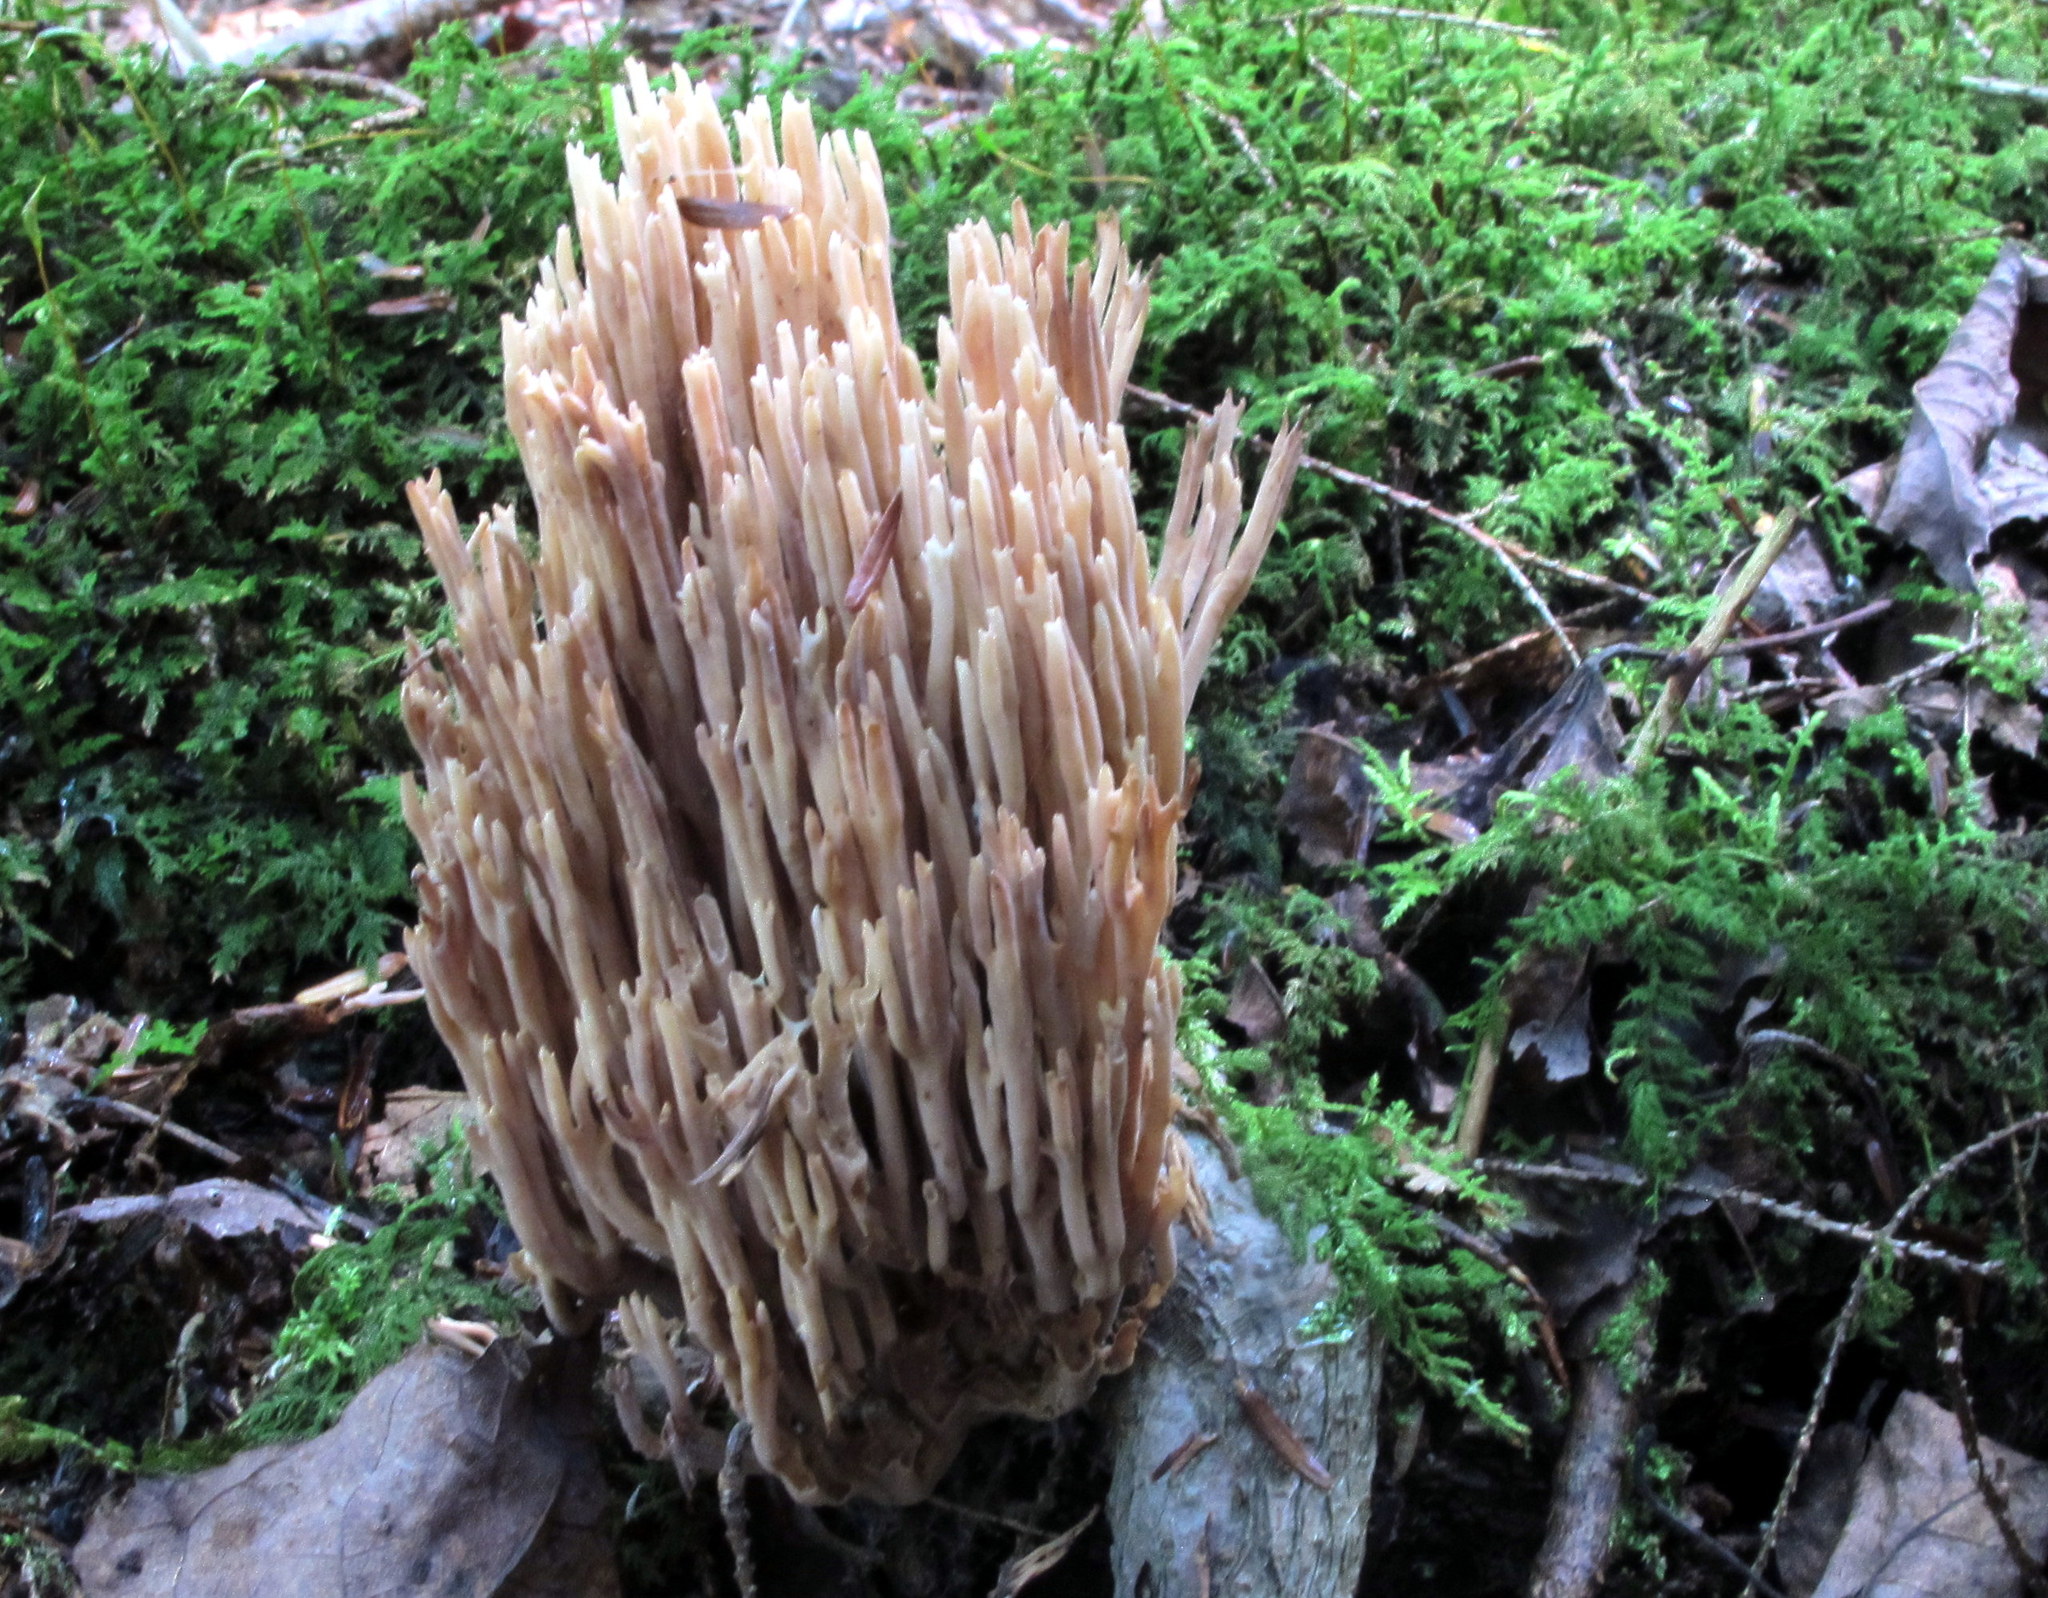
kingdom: Fungi
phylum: Basidiomycota
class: Agaricomycetes
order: Gomphales
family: Gomphaceae
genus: Ramaria
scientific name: Ramaria stricta
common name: Upright coral
